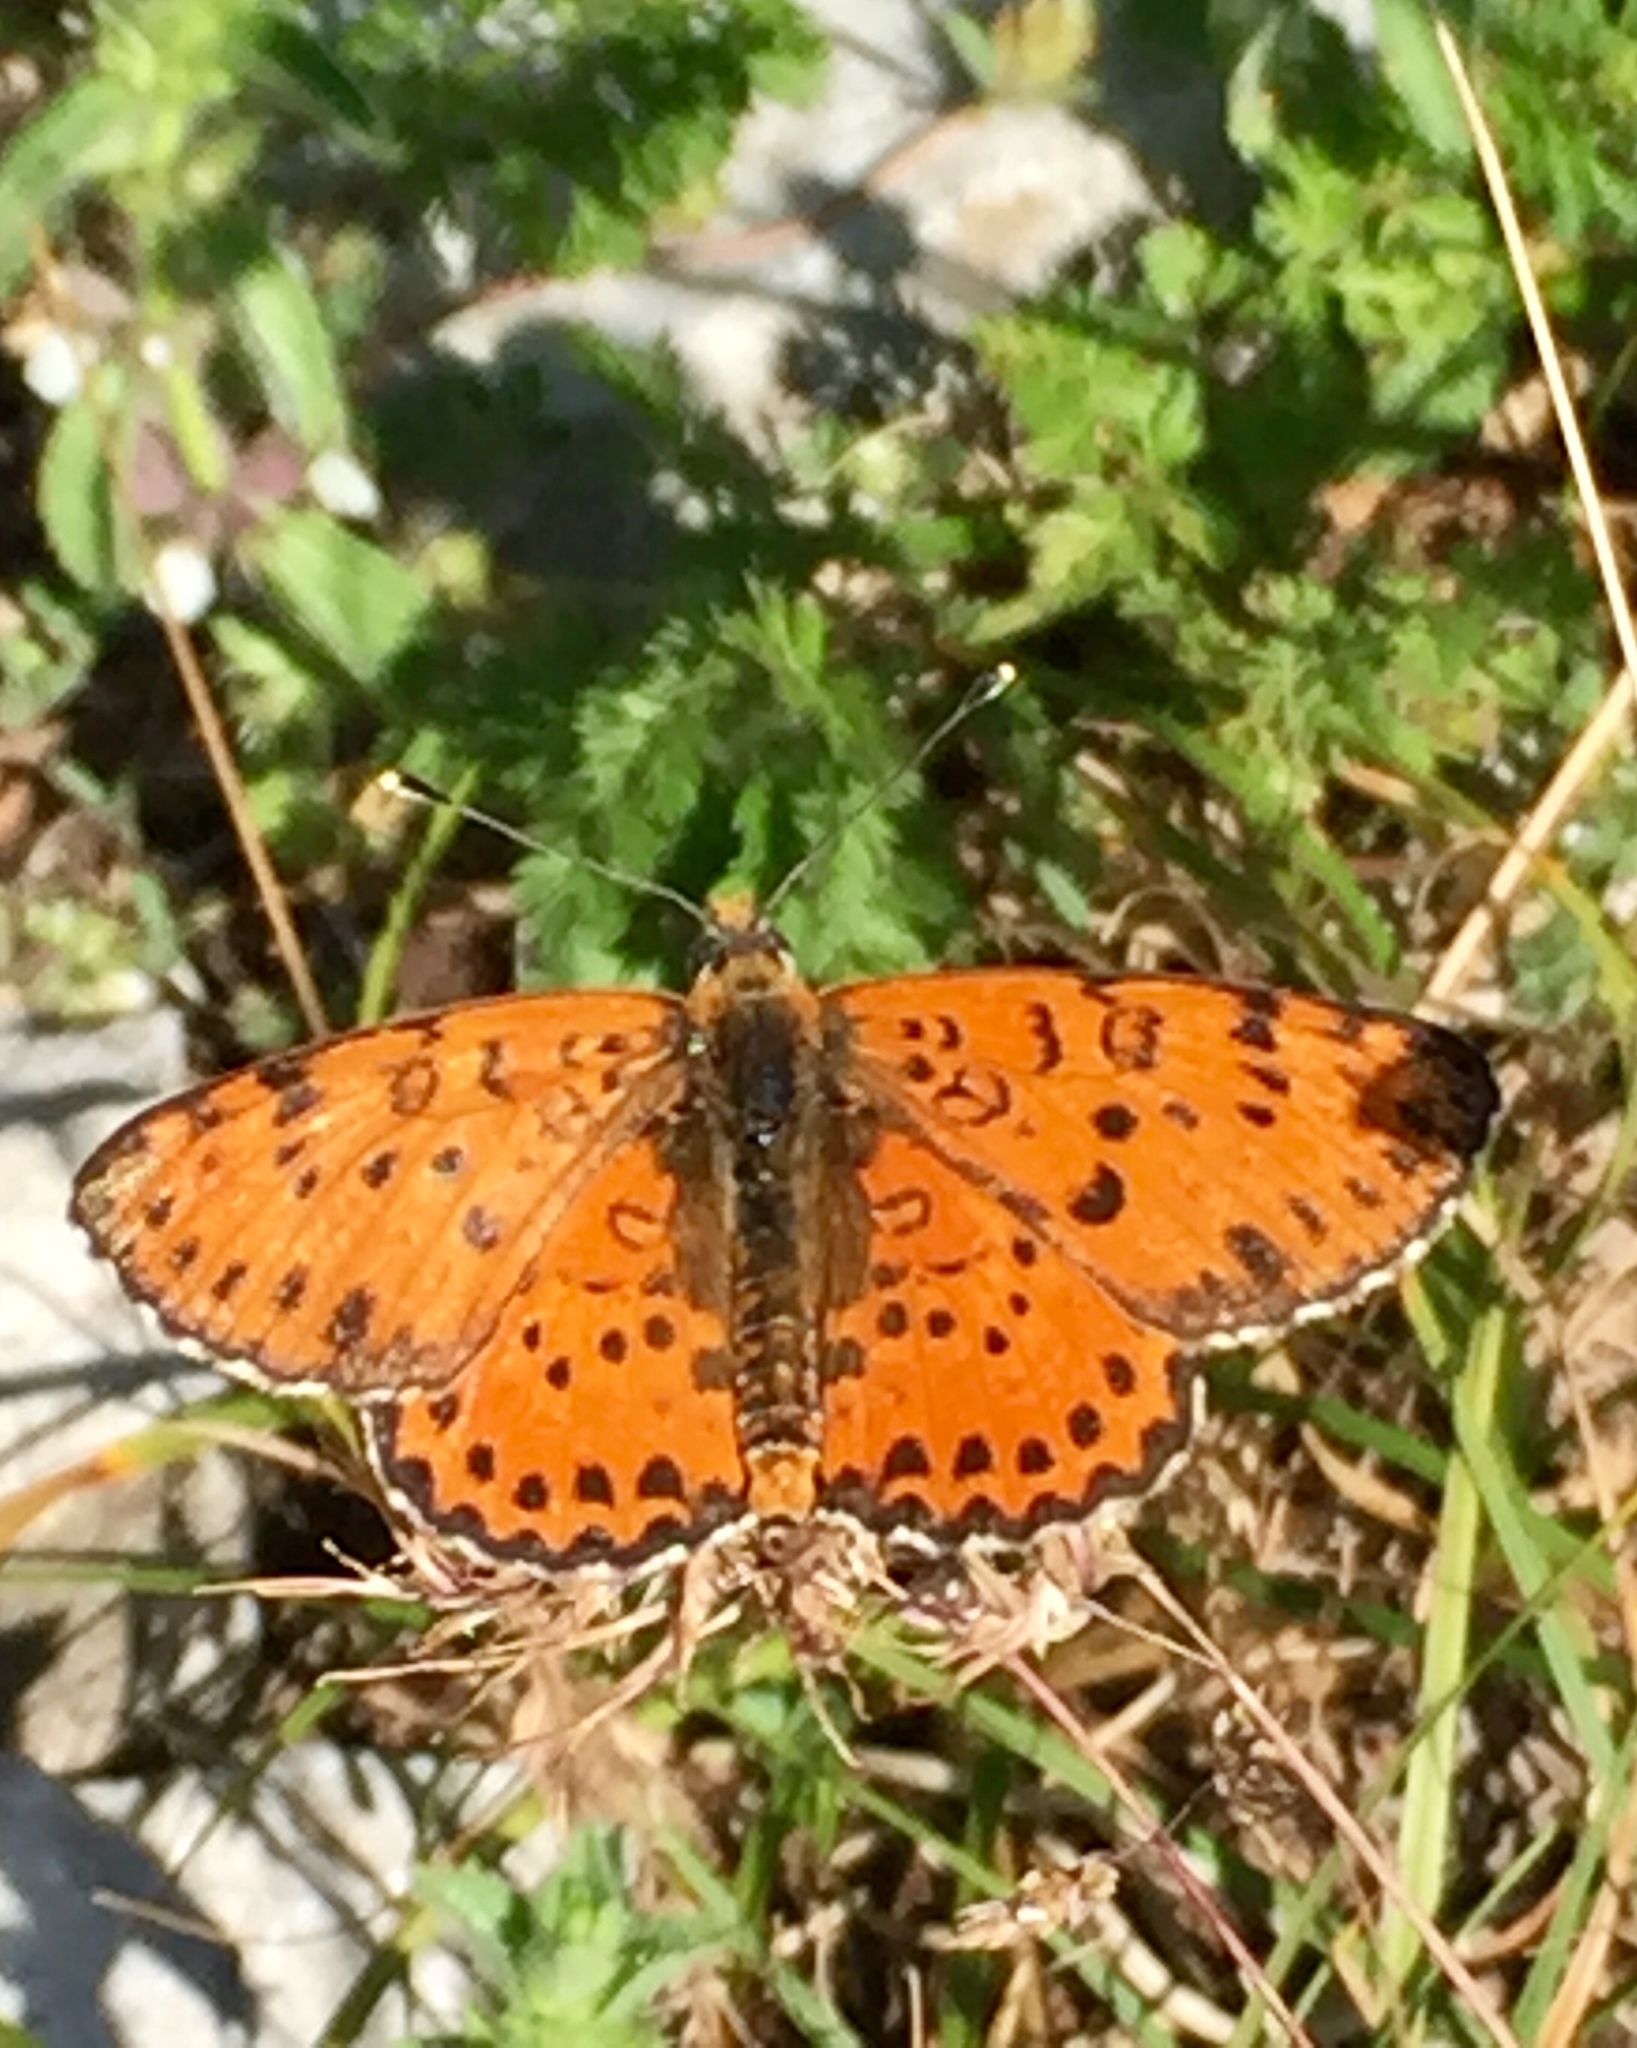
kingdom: Animalia
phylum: Arthropoda
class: Insecta
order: Lepidoptera
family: Nymphalidae
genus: Melitaea
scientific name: Melitaea didyma
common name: Spotted fritillary
